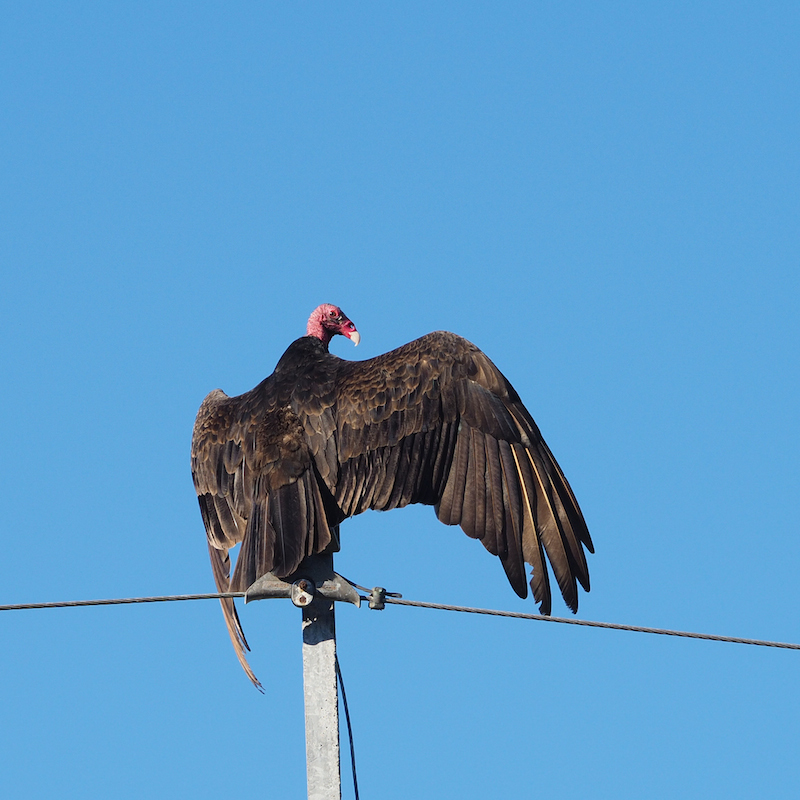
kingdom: Animalia
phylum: Chordata
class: Aves
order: Accipitriformes
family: Cathartidae
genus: Cathartes
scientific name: Cathartes aura
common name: Turkey vulture
